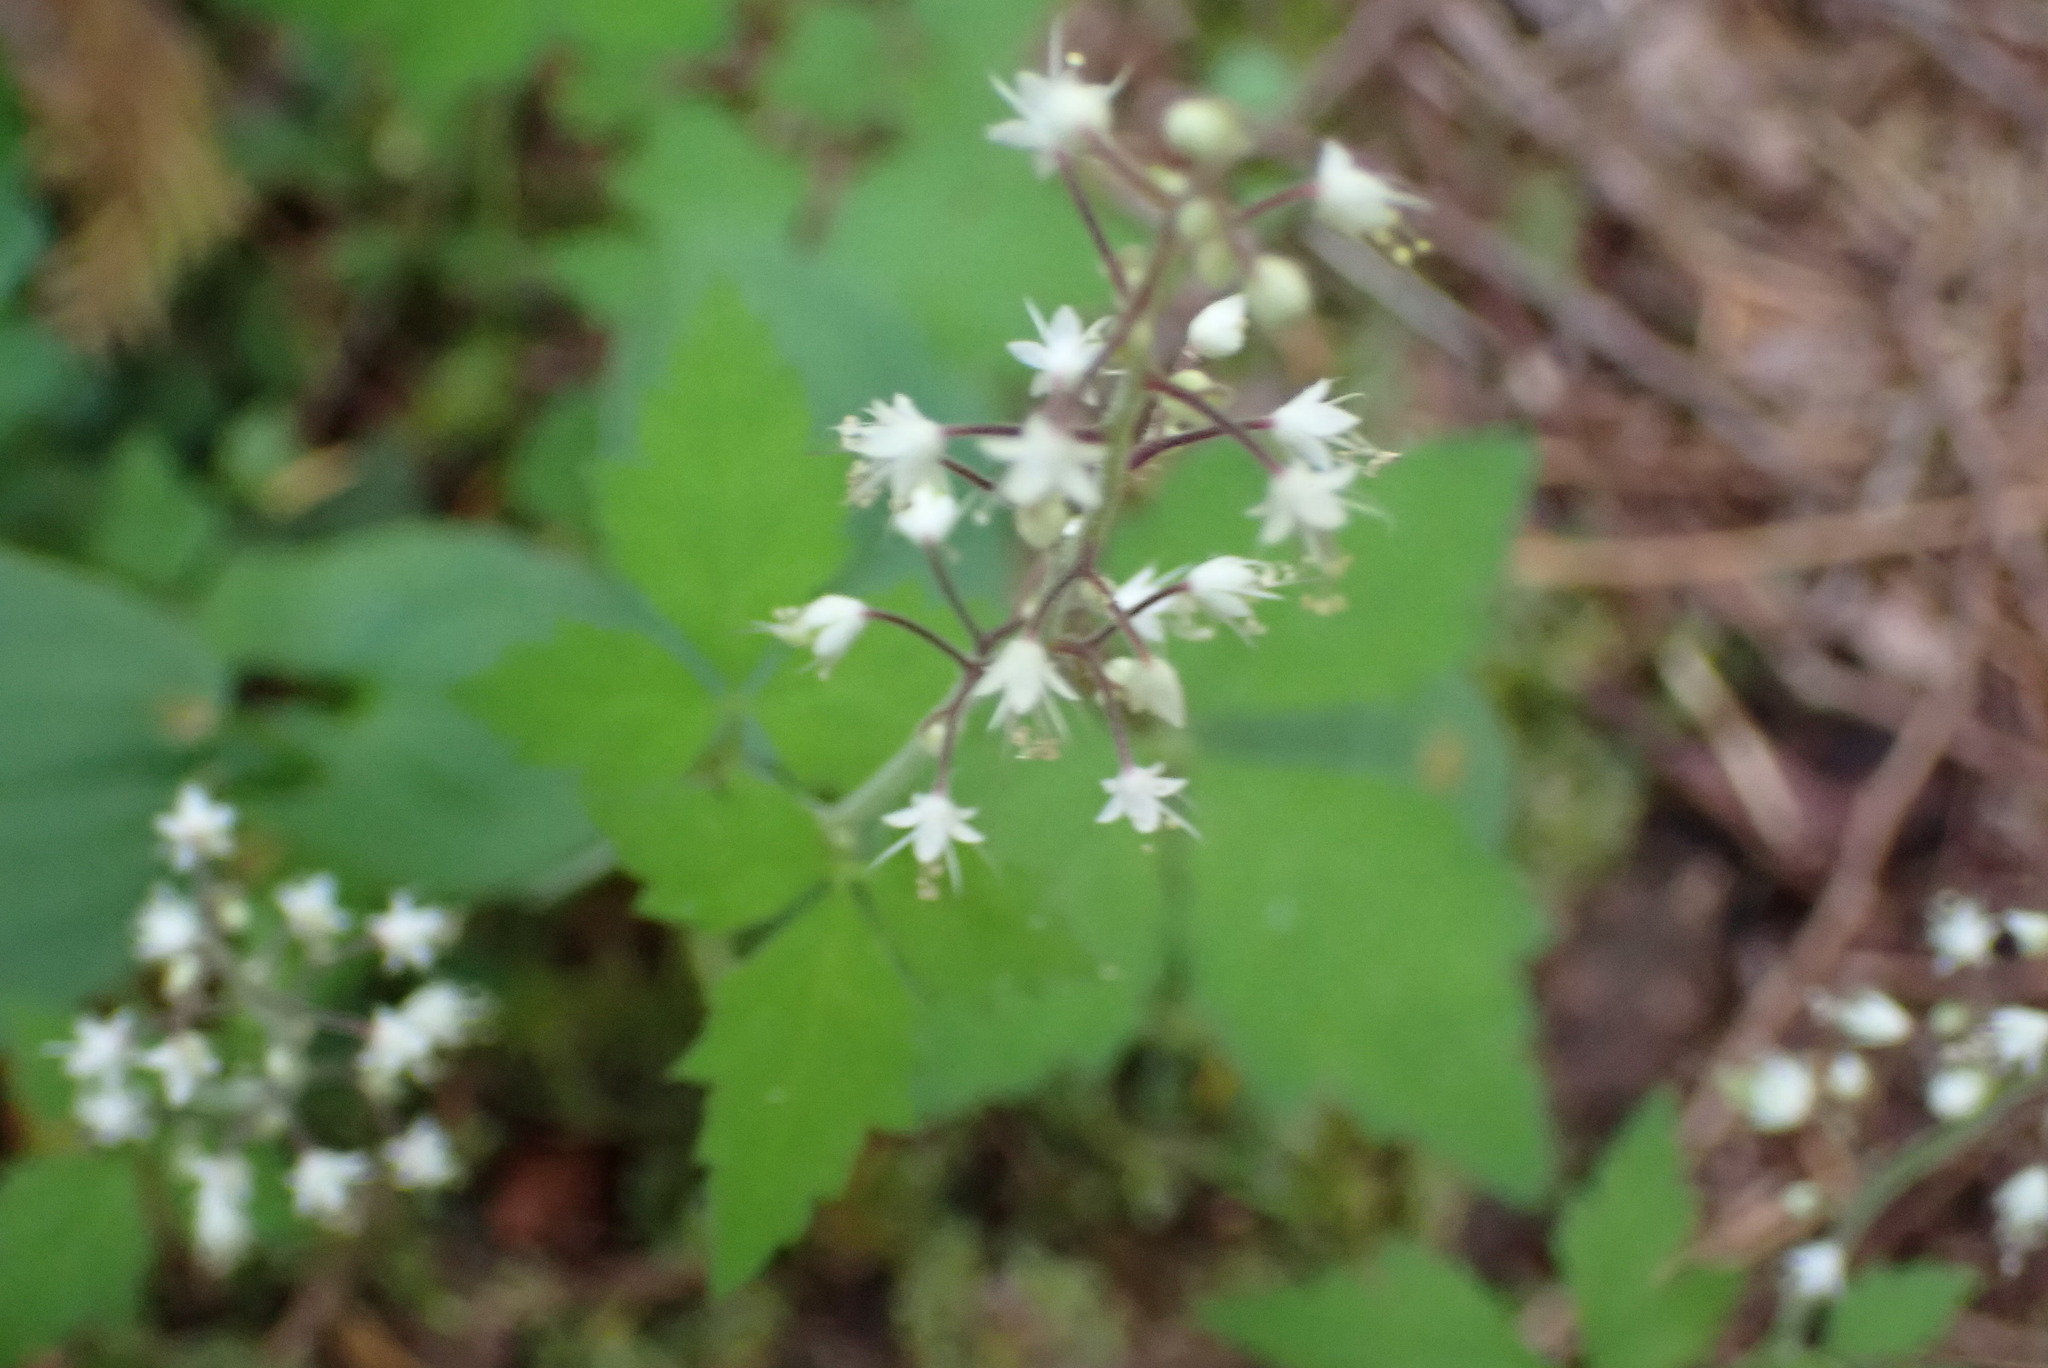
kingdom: Plantae
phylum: Tracheophyta
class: Magnoliopsida
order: Saxifragales
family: Saxifragaceae
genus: Tiarella
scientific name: Tiarella trifoliata
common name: Sugar-scoop
